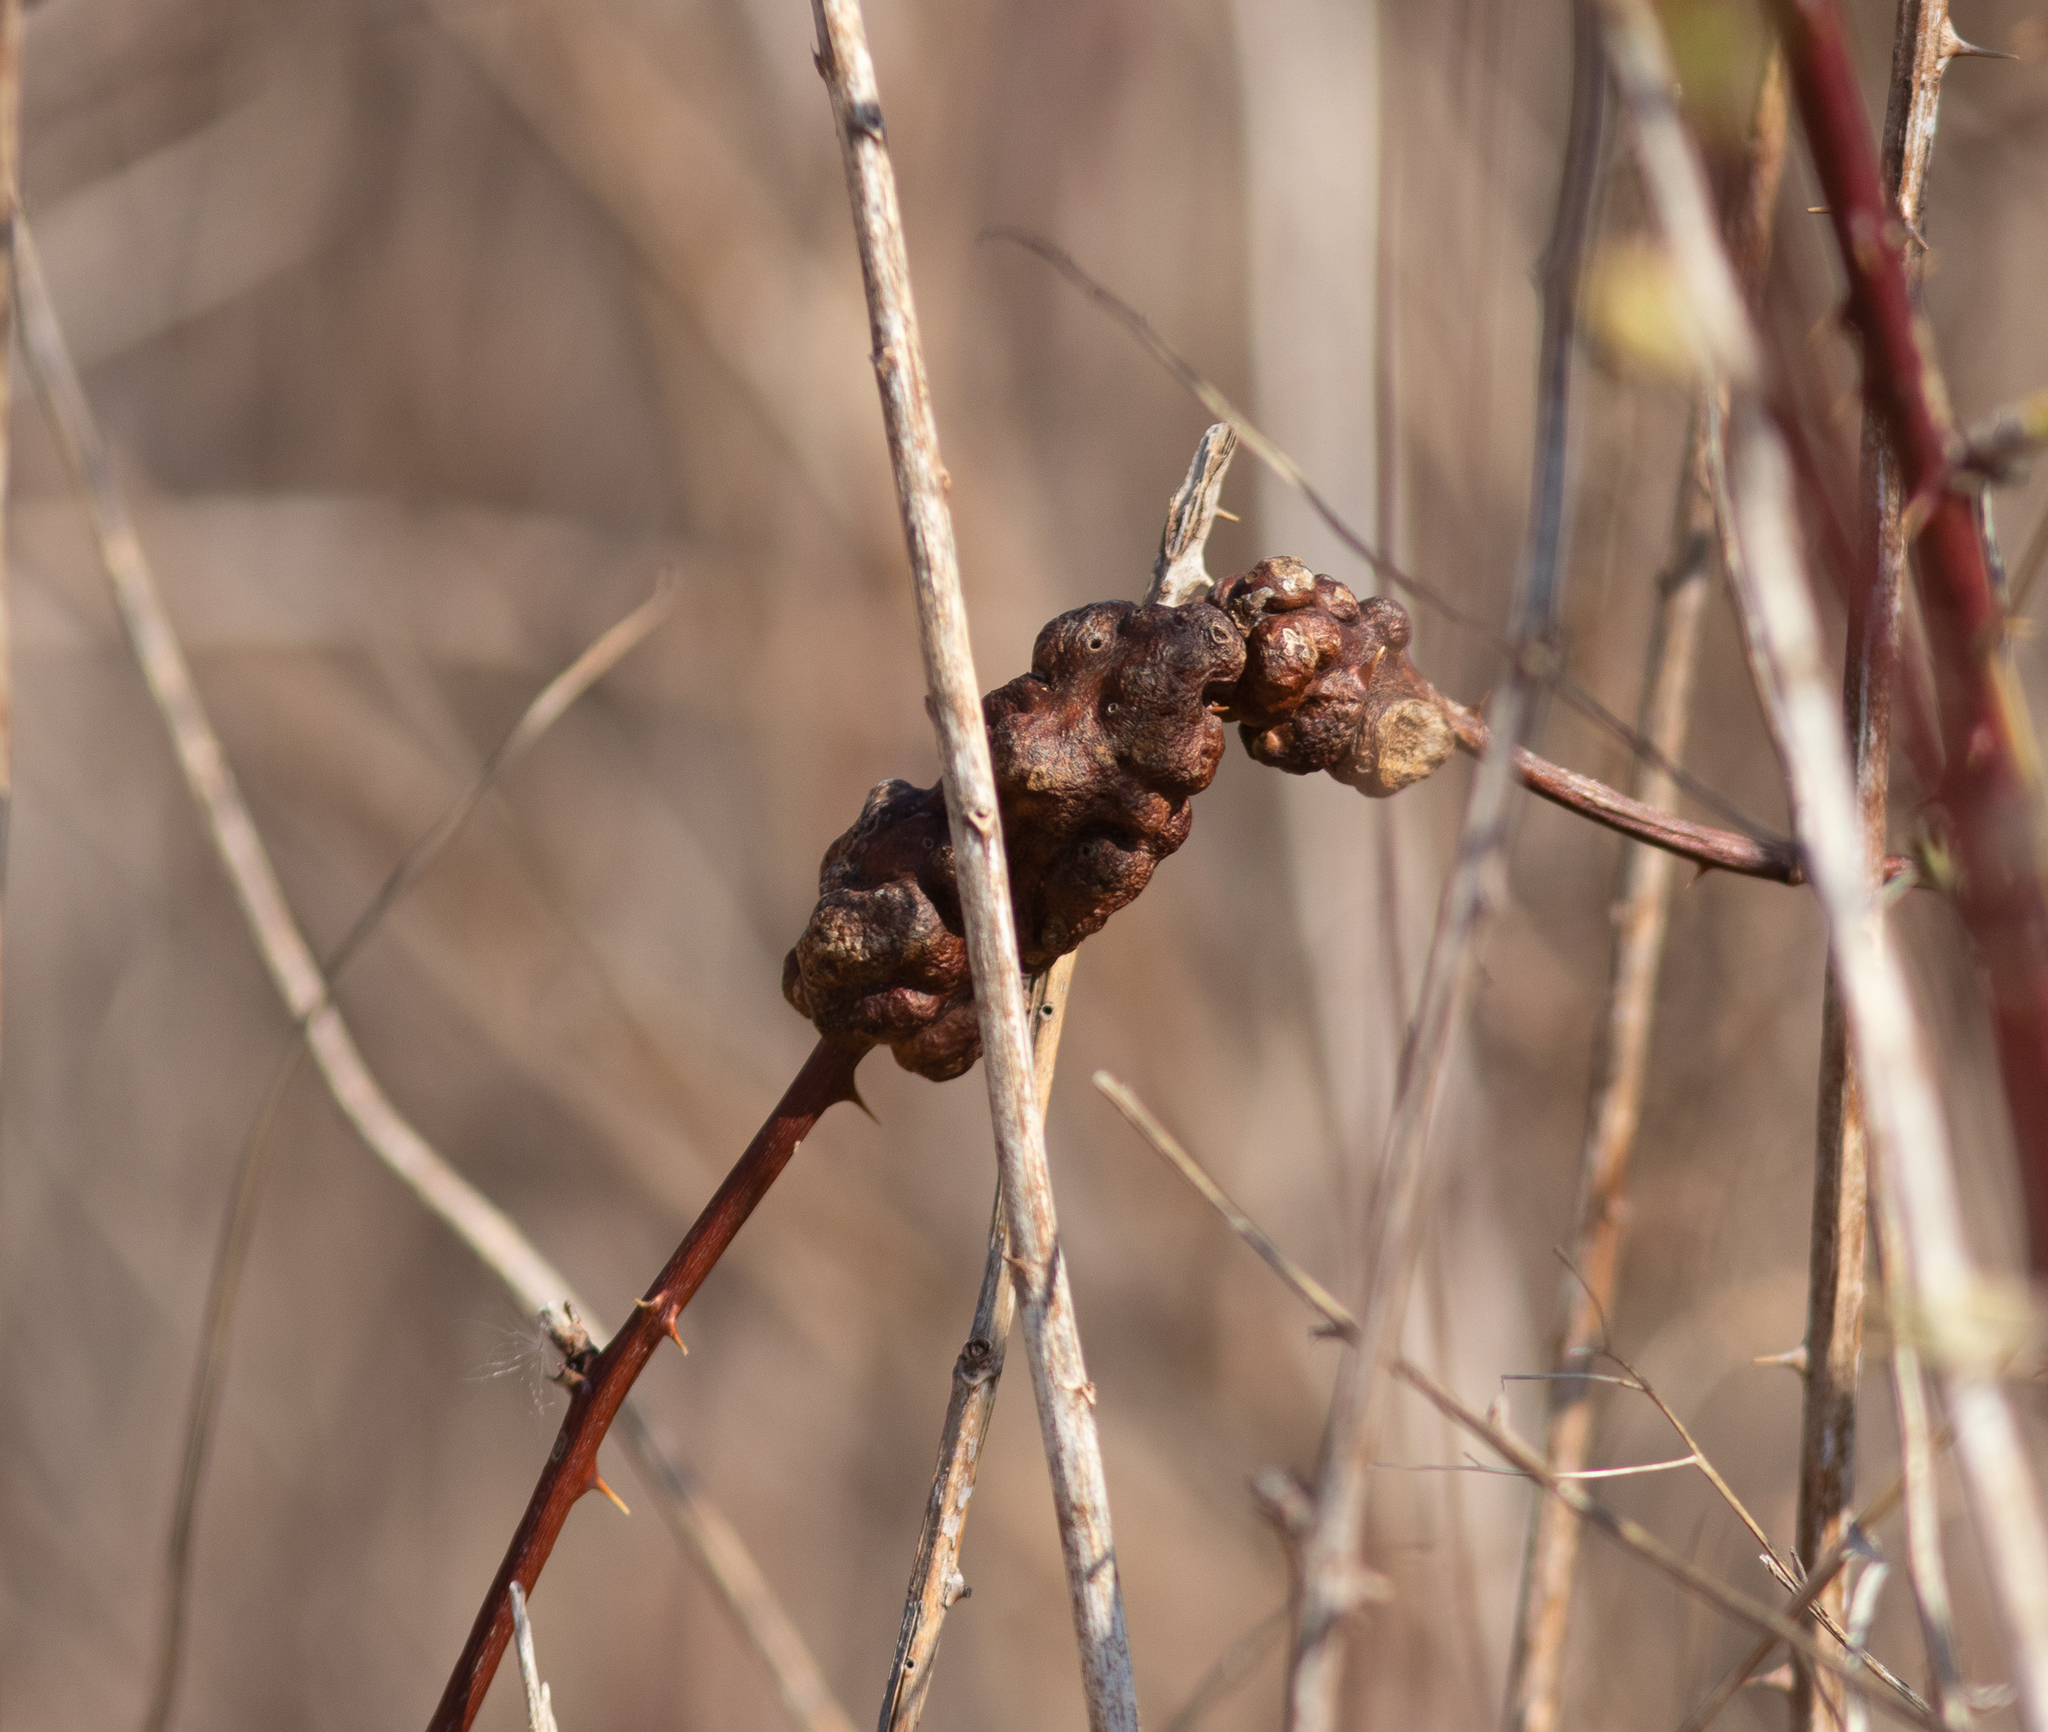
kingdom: Animalia
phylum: Arthropoda
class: Insecta
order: Hymenoptera
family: Cynipidae
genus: Diastrophus
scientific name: Diastrophus
